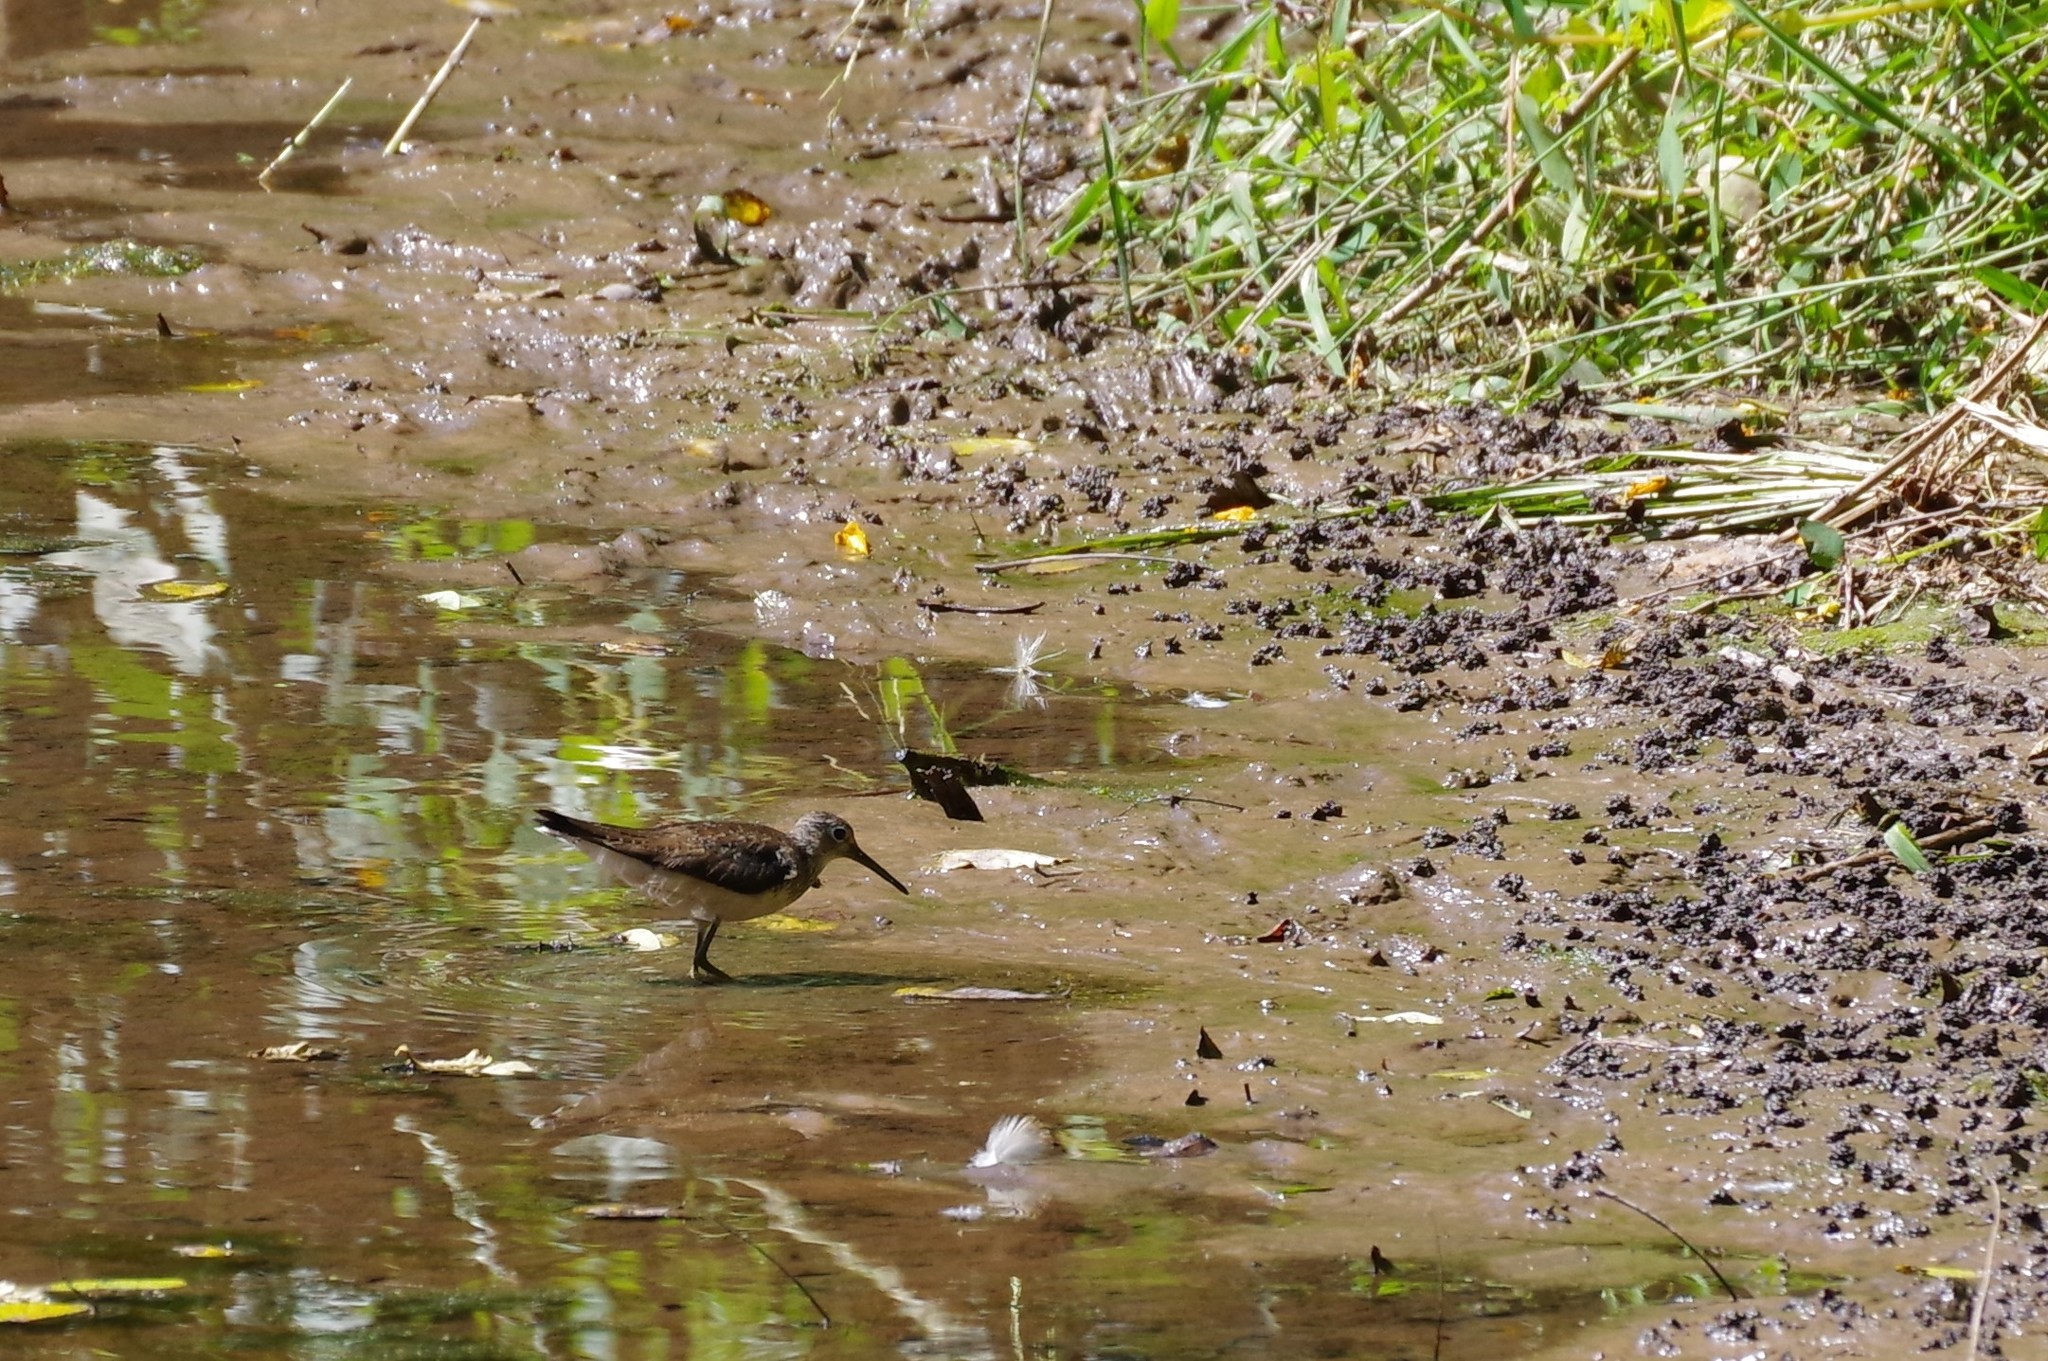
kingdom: Animalia
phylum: Chordata
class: Aves
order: Charadriiformes
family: Scolopacidae
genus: Tringa
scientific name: Tringa solitaria
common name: Solitary sandpiper
